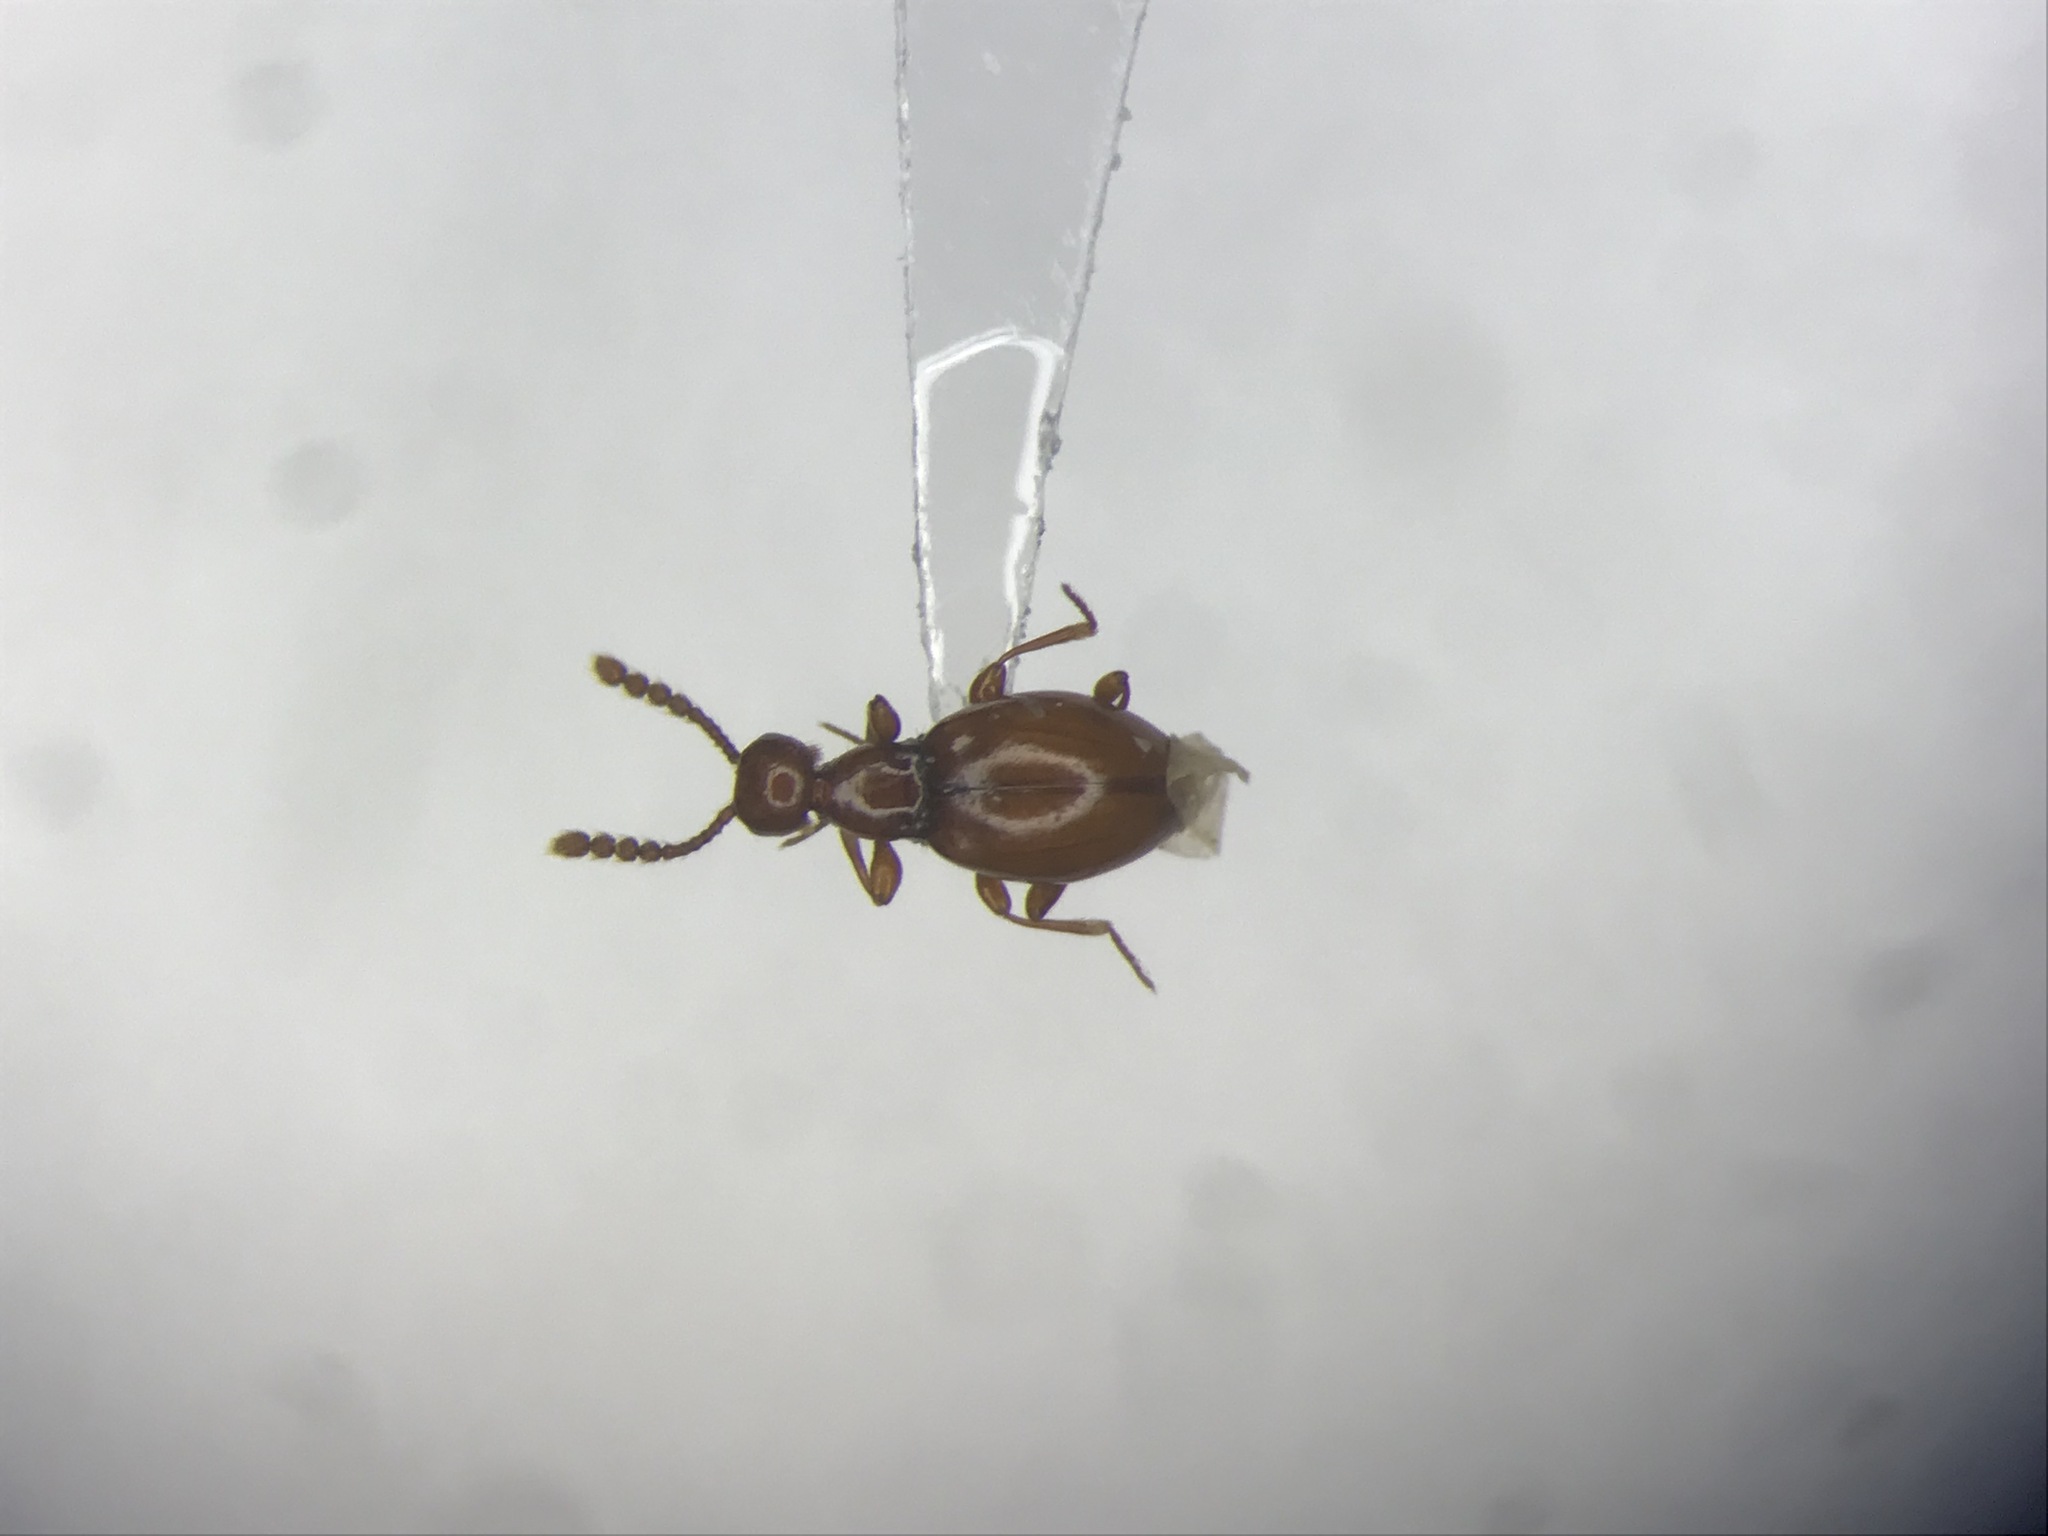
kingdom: Animalia
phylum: Arthropoda
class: Insecta
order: Coleoptera
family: Staphylinidae
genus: Euconnus
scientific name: Euconnus rasus
